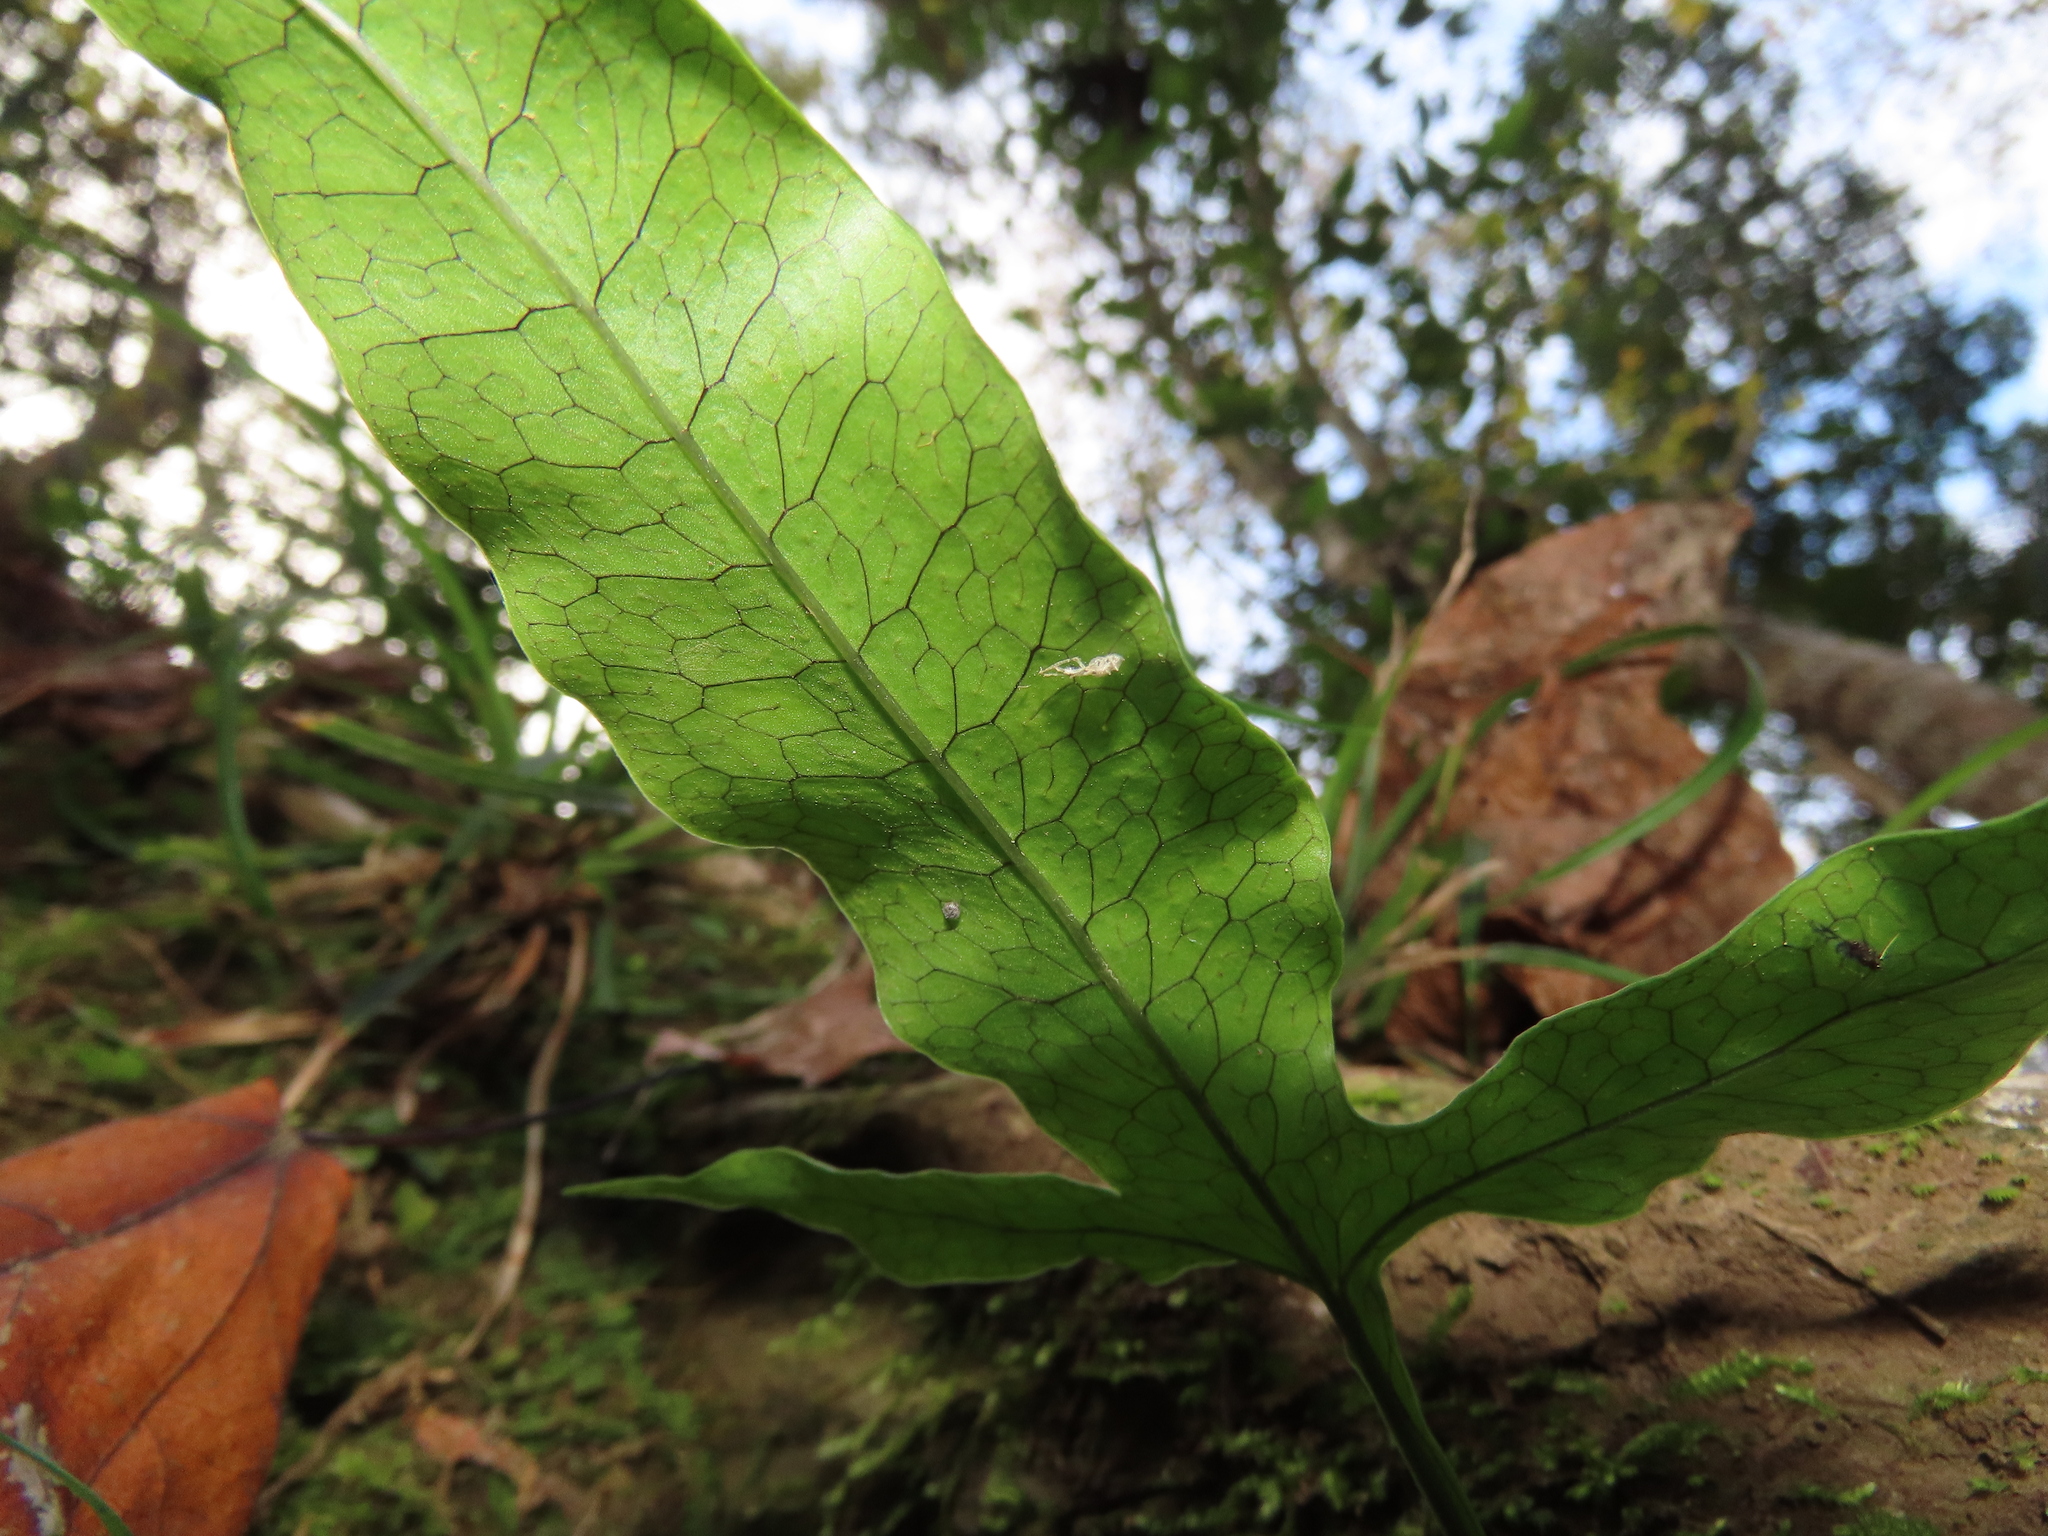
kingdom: Plantae
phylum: Tracheophyta
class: Polypodiopsida
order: Polypodiales
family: Polypodiaceae
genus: Leptochilus
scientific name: Leptochilus ellipticus
